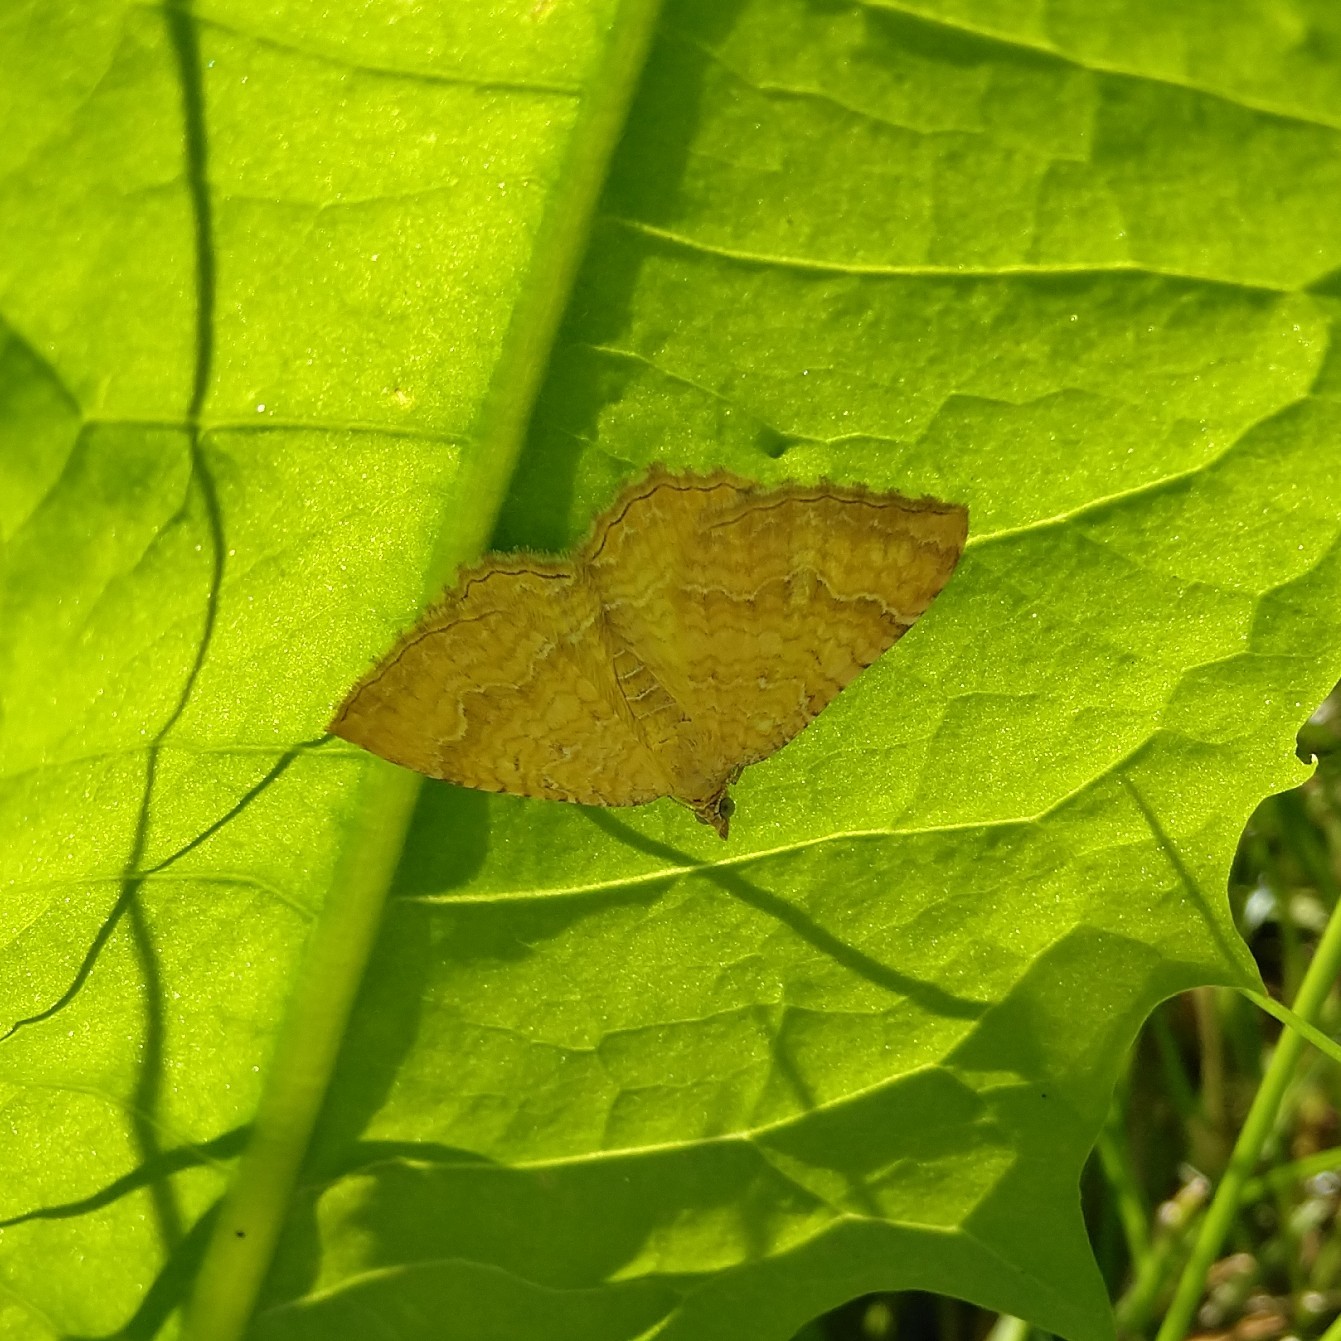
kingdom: Animalia
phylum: Arthropoda
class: Insecta
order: Lepidoptera
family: Geometridae
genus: Camptogramma
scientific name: Camptogramma bilineata
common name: Yellow shell
